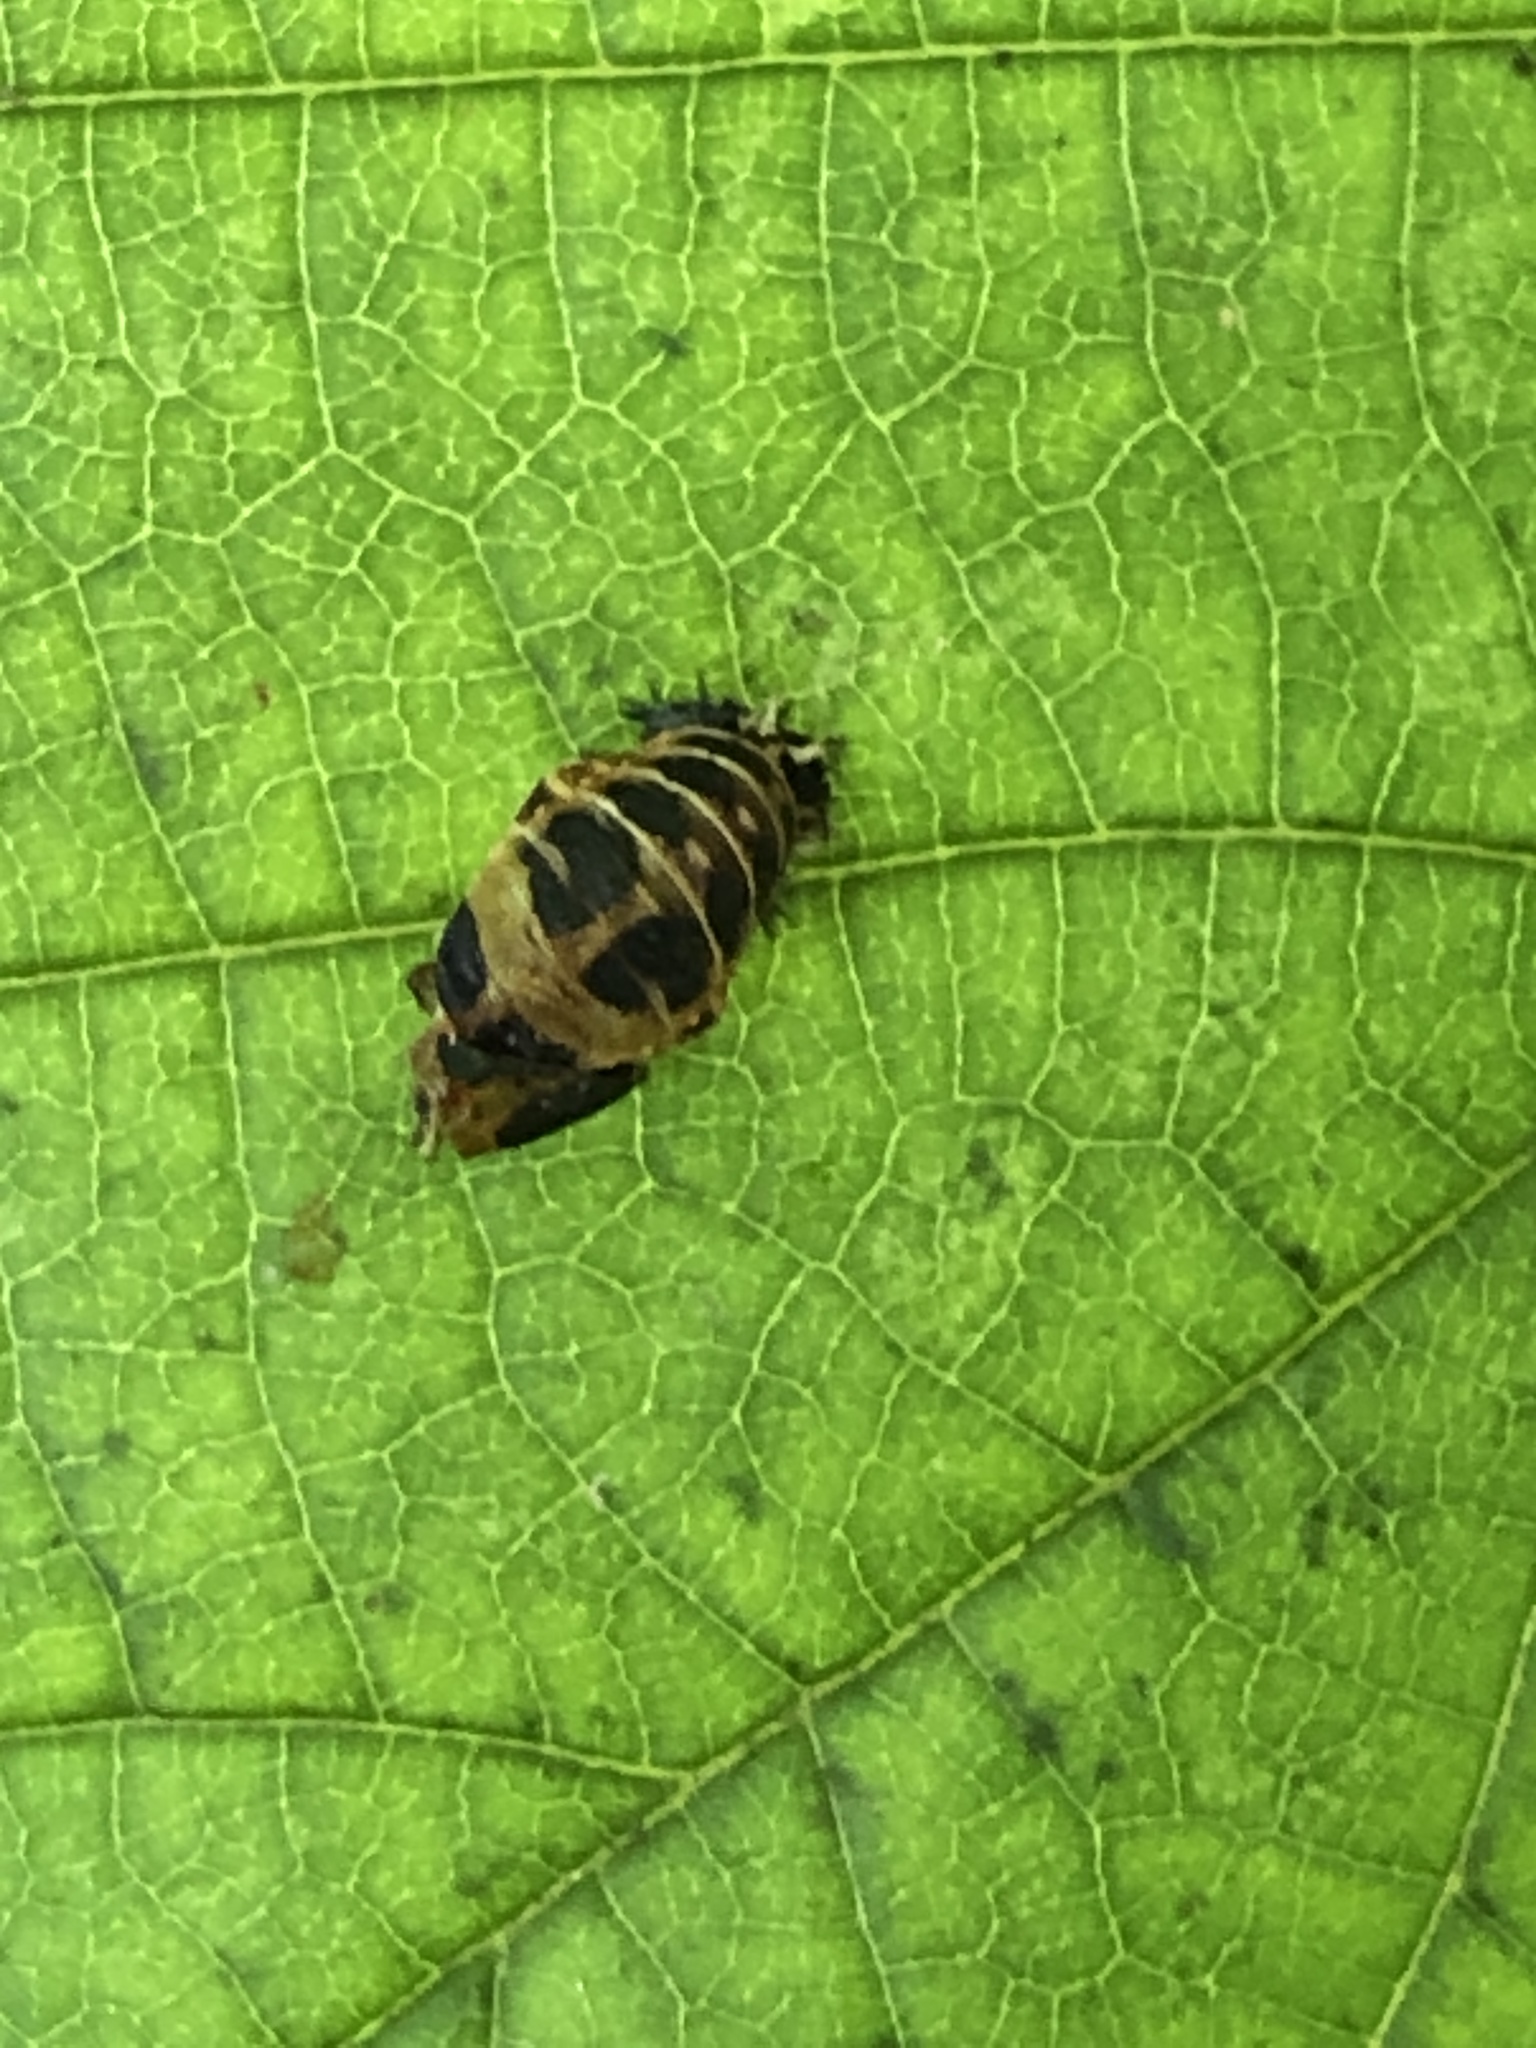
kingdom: Animalia
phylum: Arthropoda
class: Insecta
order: Coleoptera
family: Coccinellidae
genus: Harmonia
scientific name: Harmonia axyridis
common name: Harlequin ladybird
